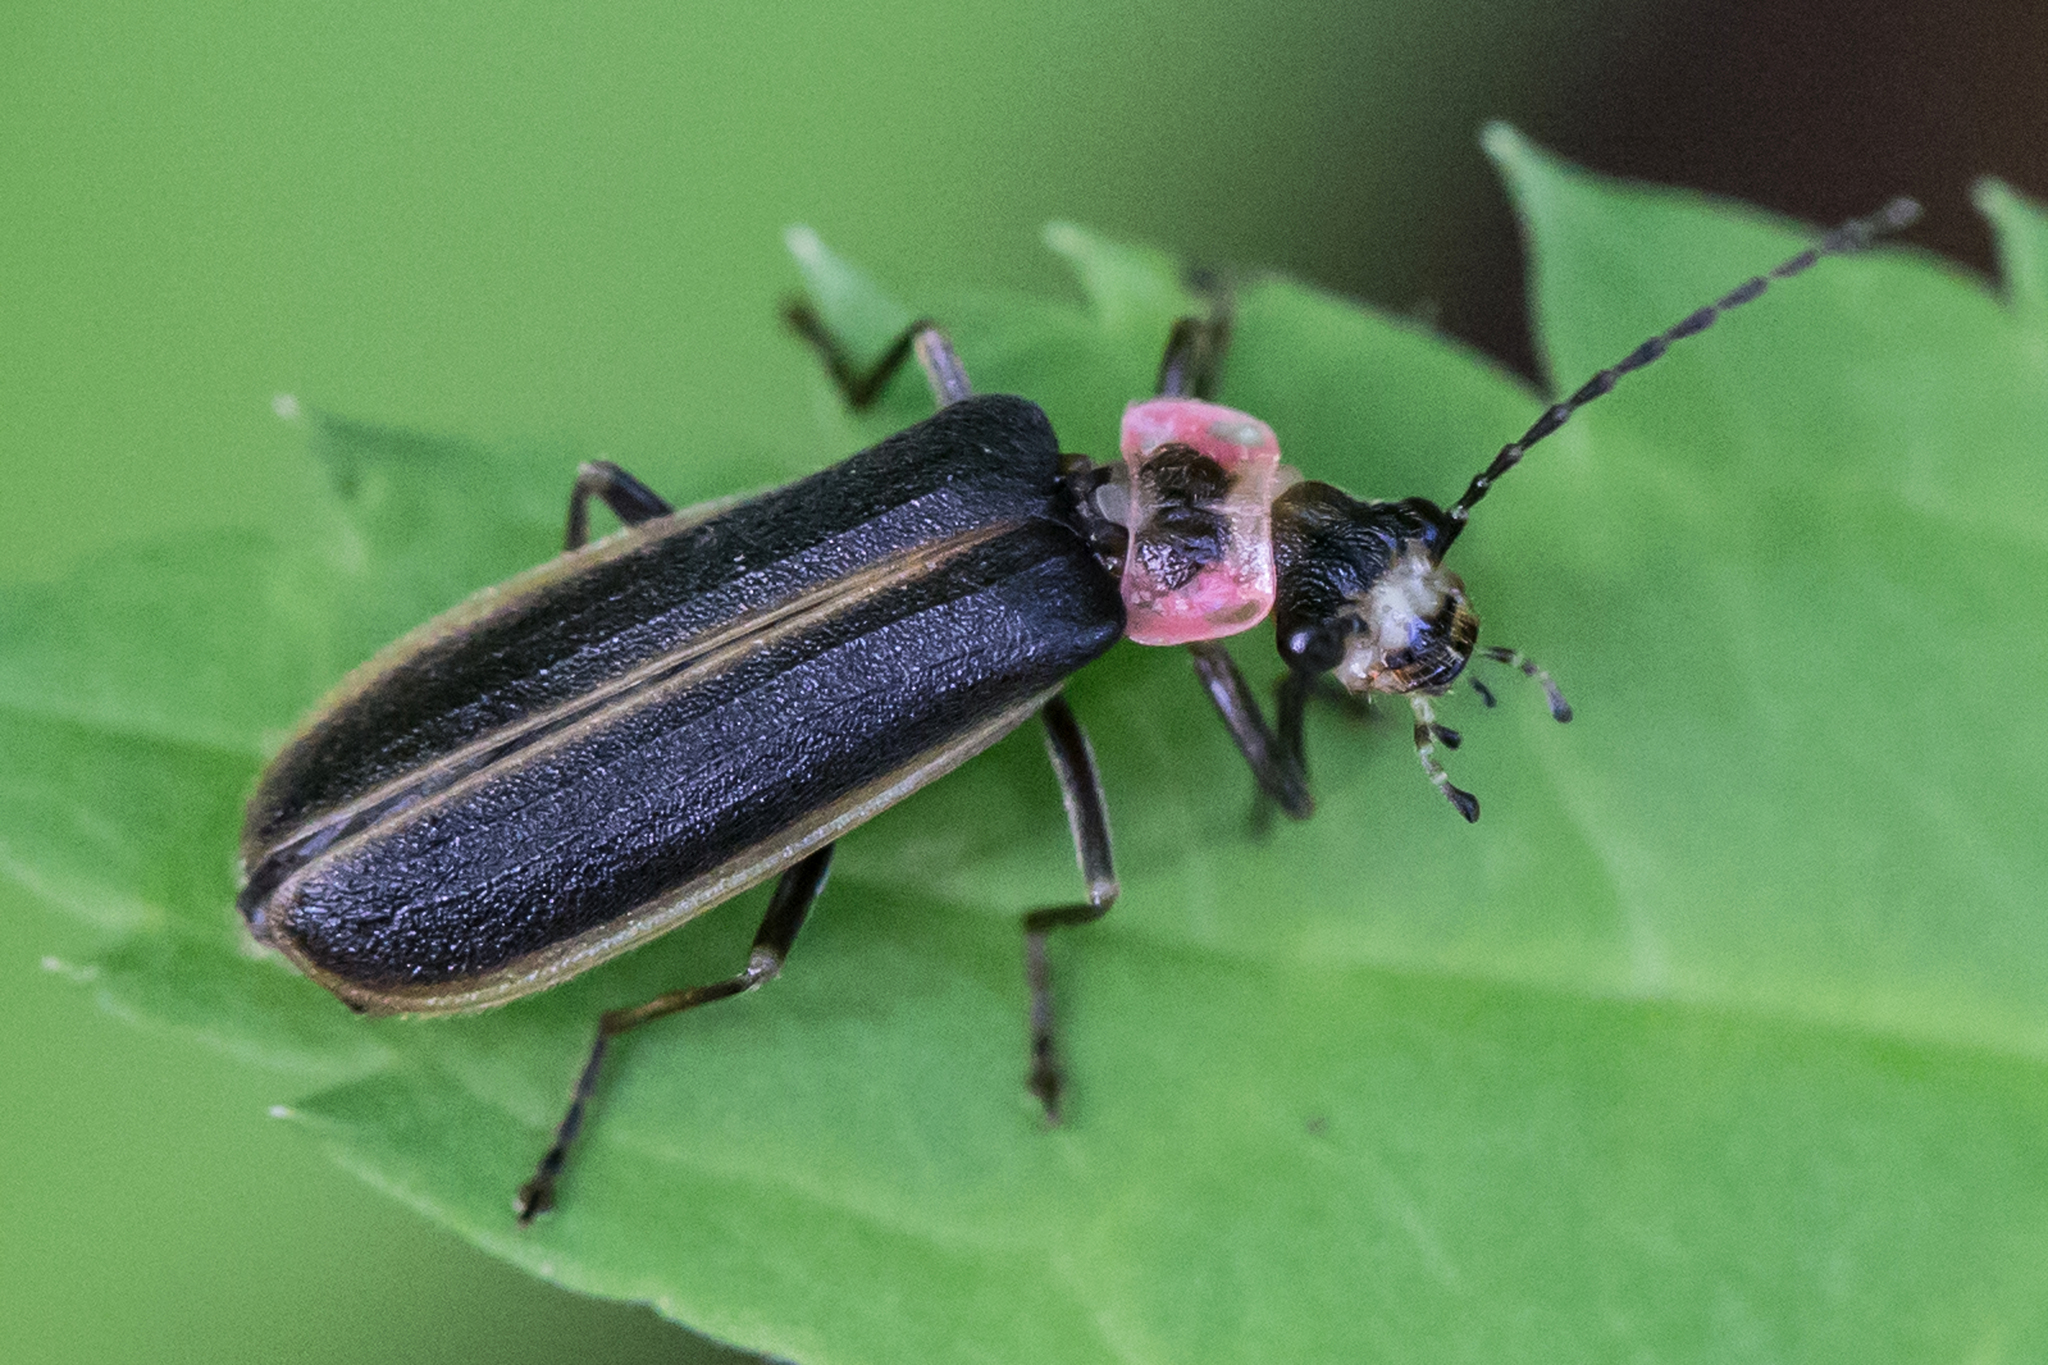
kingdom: Animalia
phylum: Arthropoda
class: Insecta
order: Coleoptera
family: Cantharidae
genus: Podabrus
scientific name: Podabrus brevicollis
